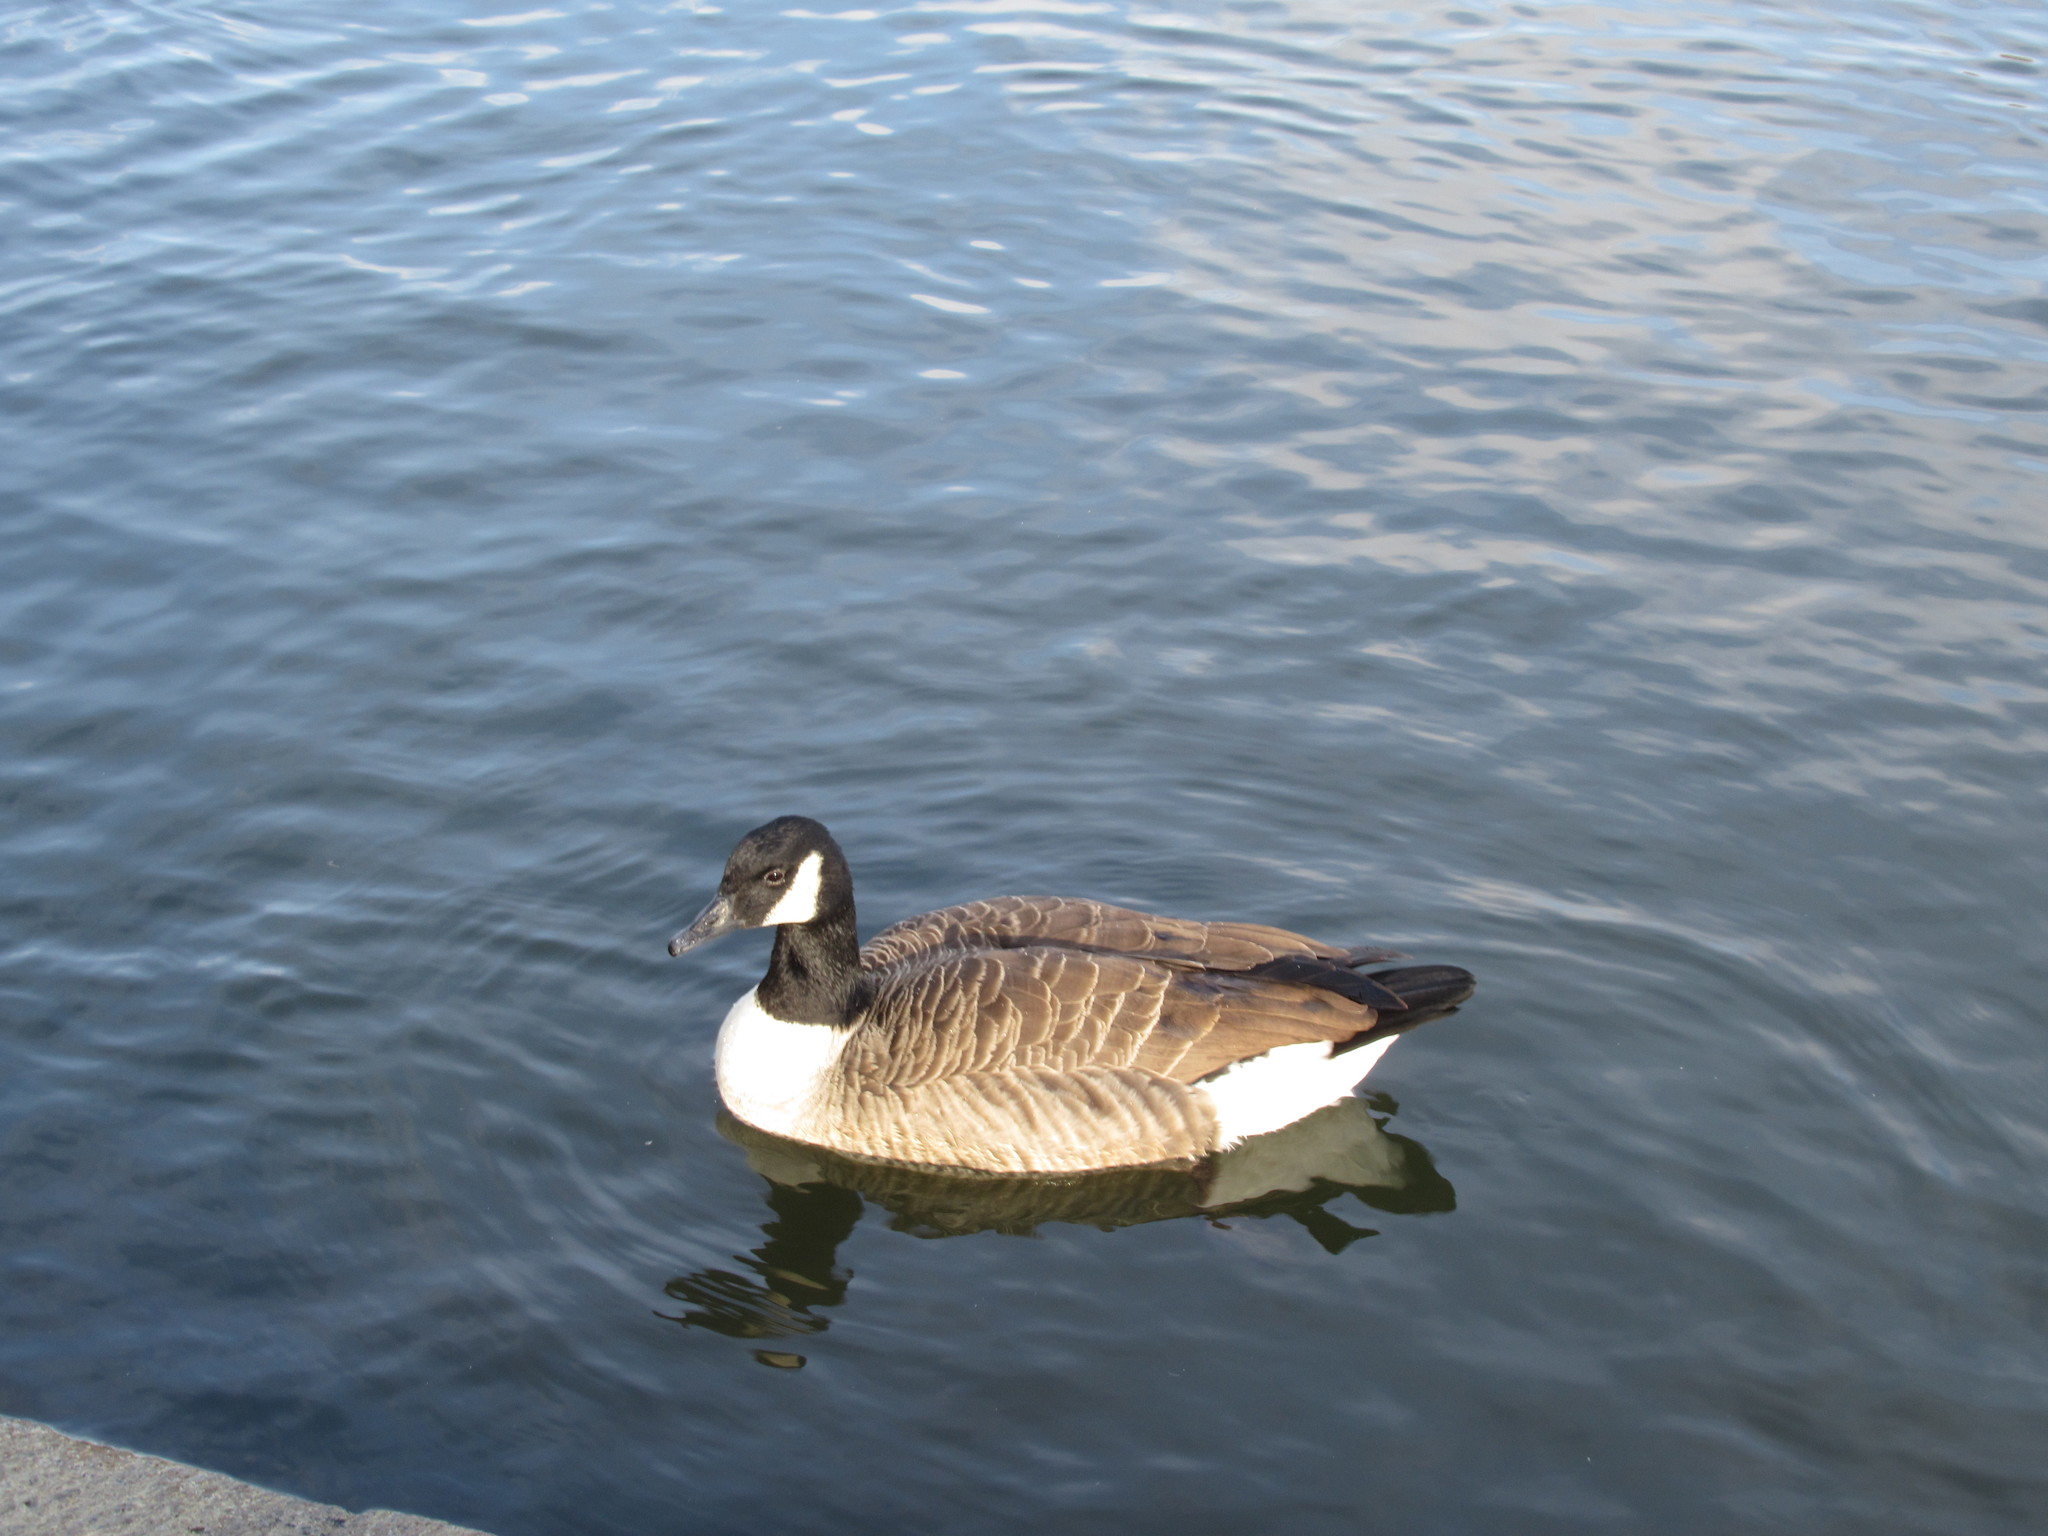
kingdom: Animalia
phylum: Chordata
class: Aves
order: Anseriformes
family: Anatidae
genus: Branta
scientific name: Branta canadensis
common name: Canada goose
